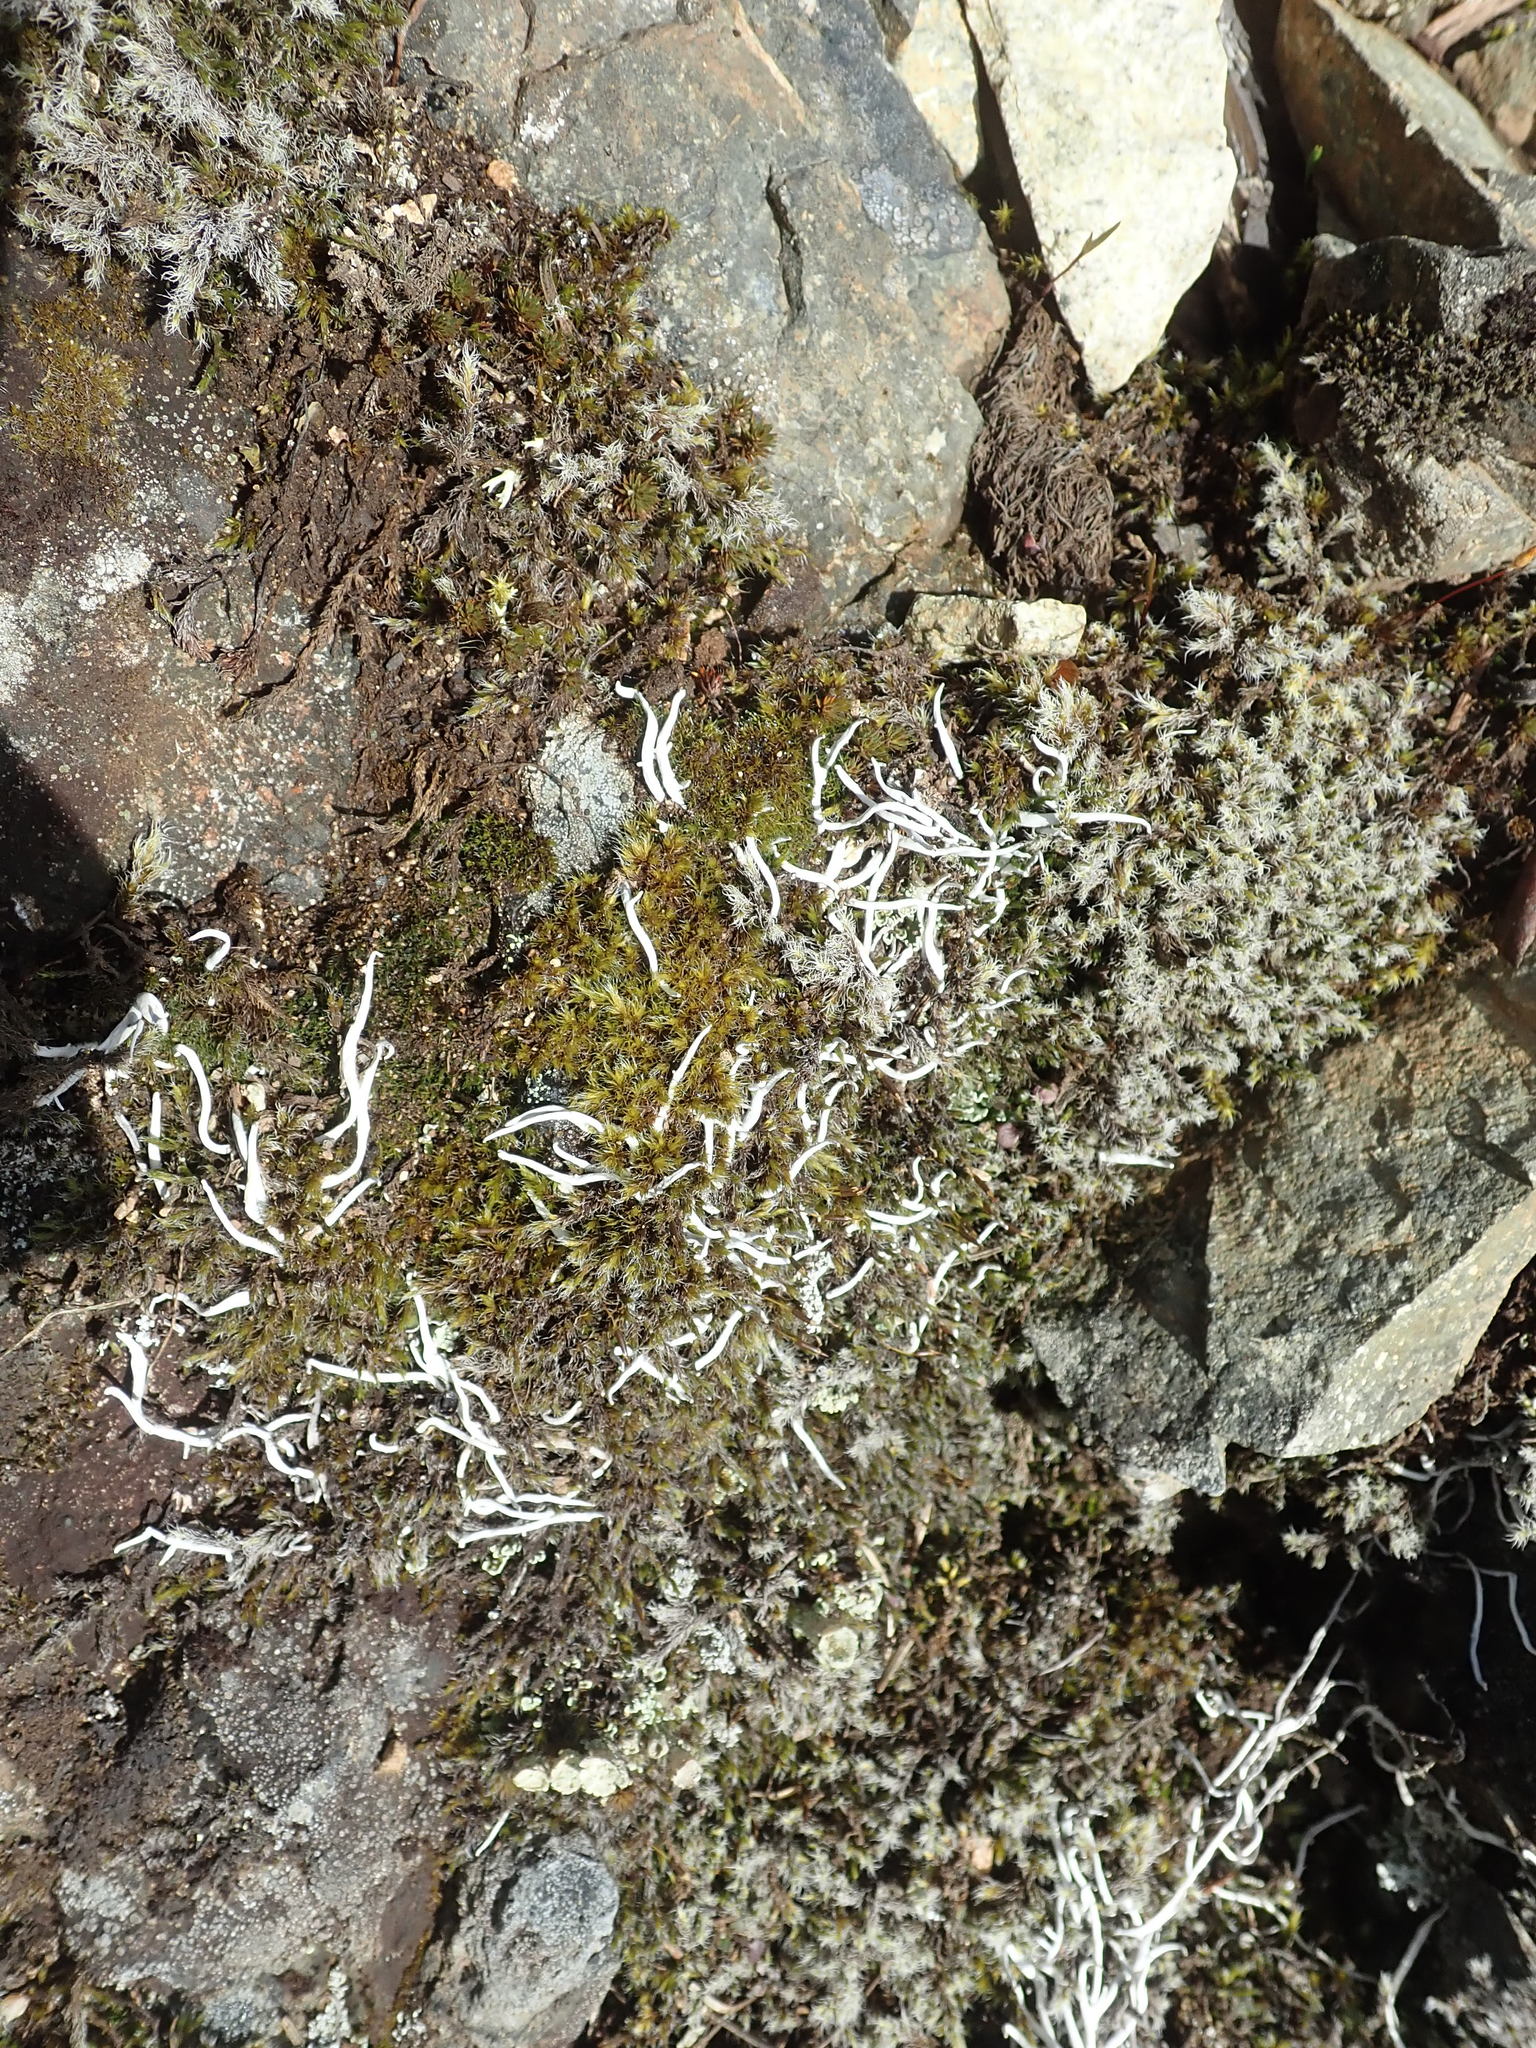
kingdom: Fungi
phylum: Ascomycota
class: Lecanoromycetes
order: Pertusariales
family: Icmadophilaceae
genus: Thamnolia
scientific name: Thamnolia vermicularis
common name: Whiteworm lichen
